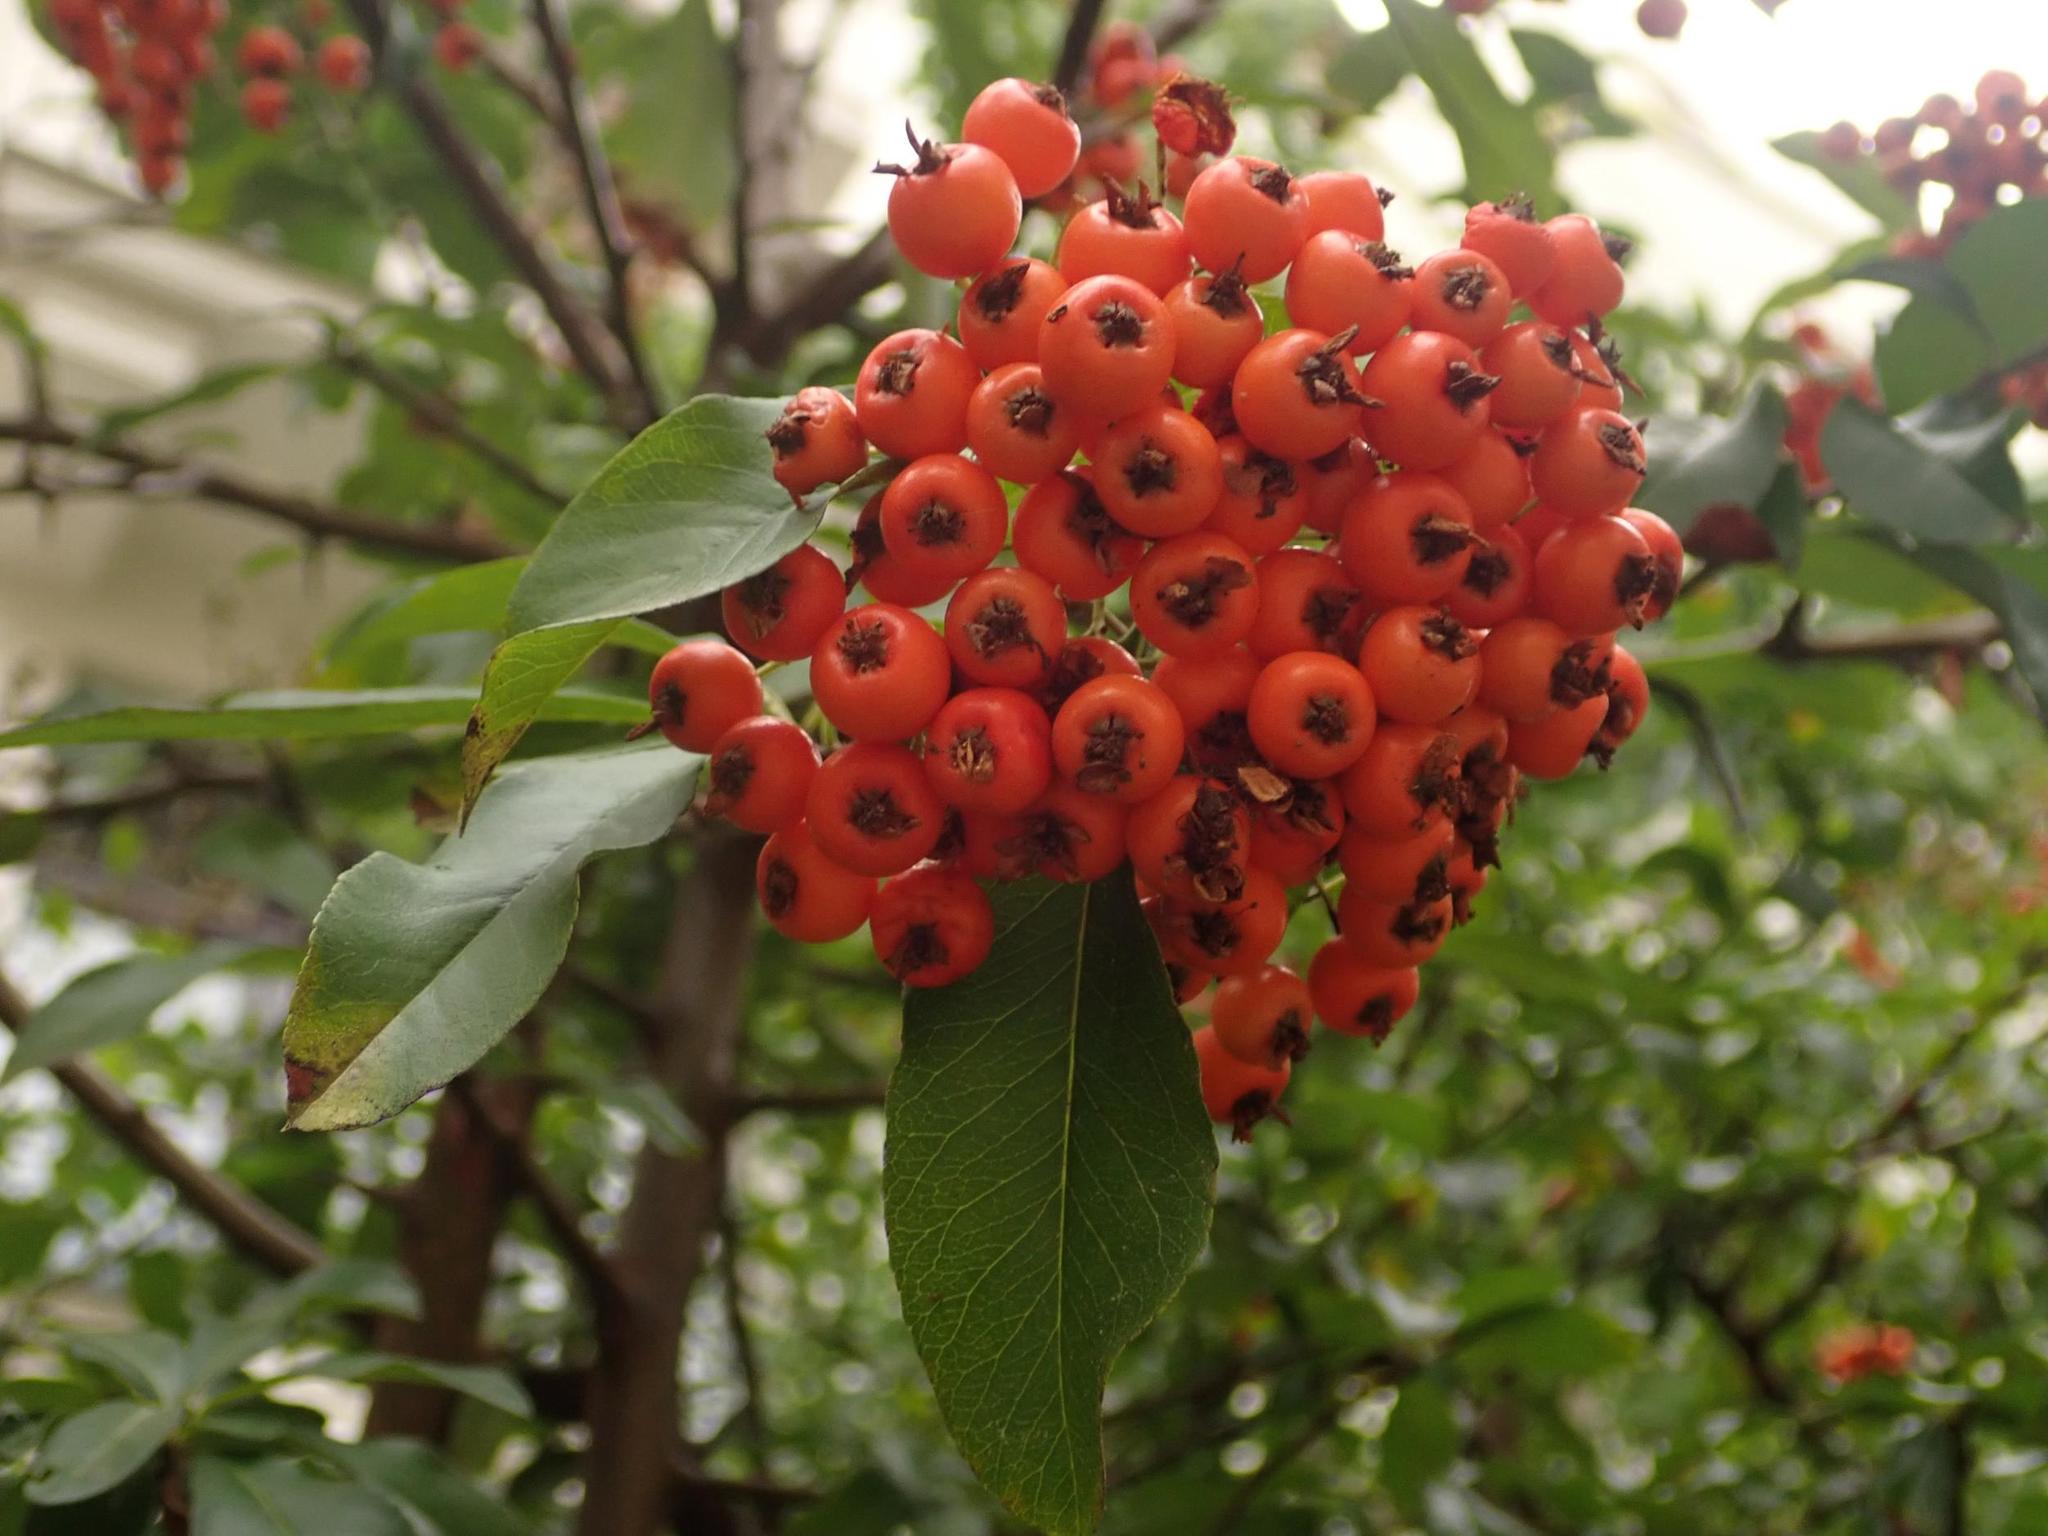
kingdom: Plantae
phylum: Tracheophyta
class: Magnoliopsida
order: Rosales
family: Rosaceae
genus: Pyracantha
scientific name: Pyracantha coccinea
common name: Firethorn
